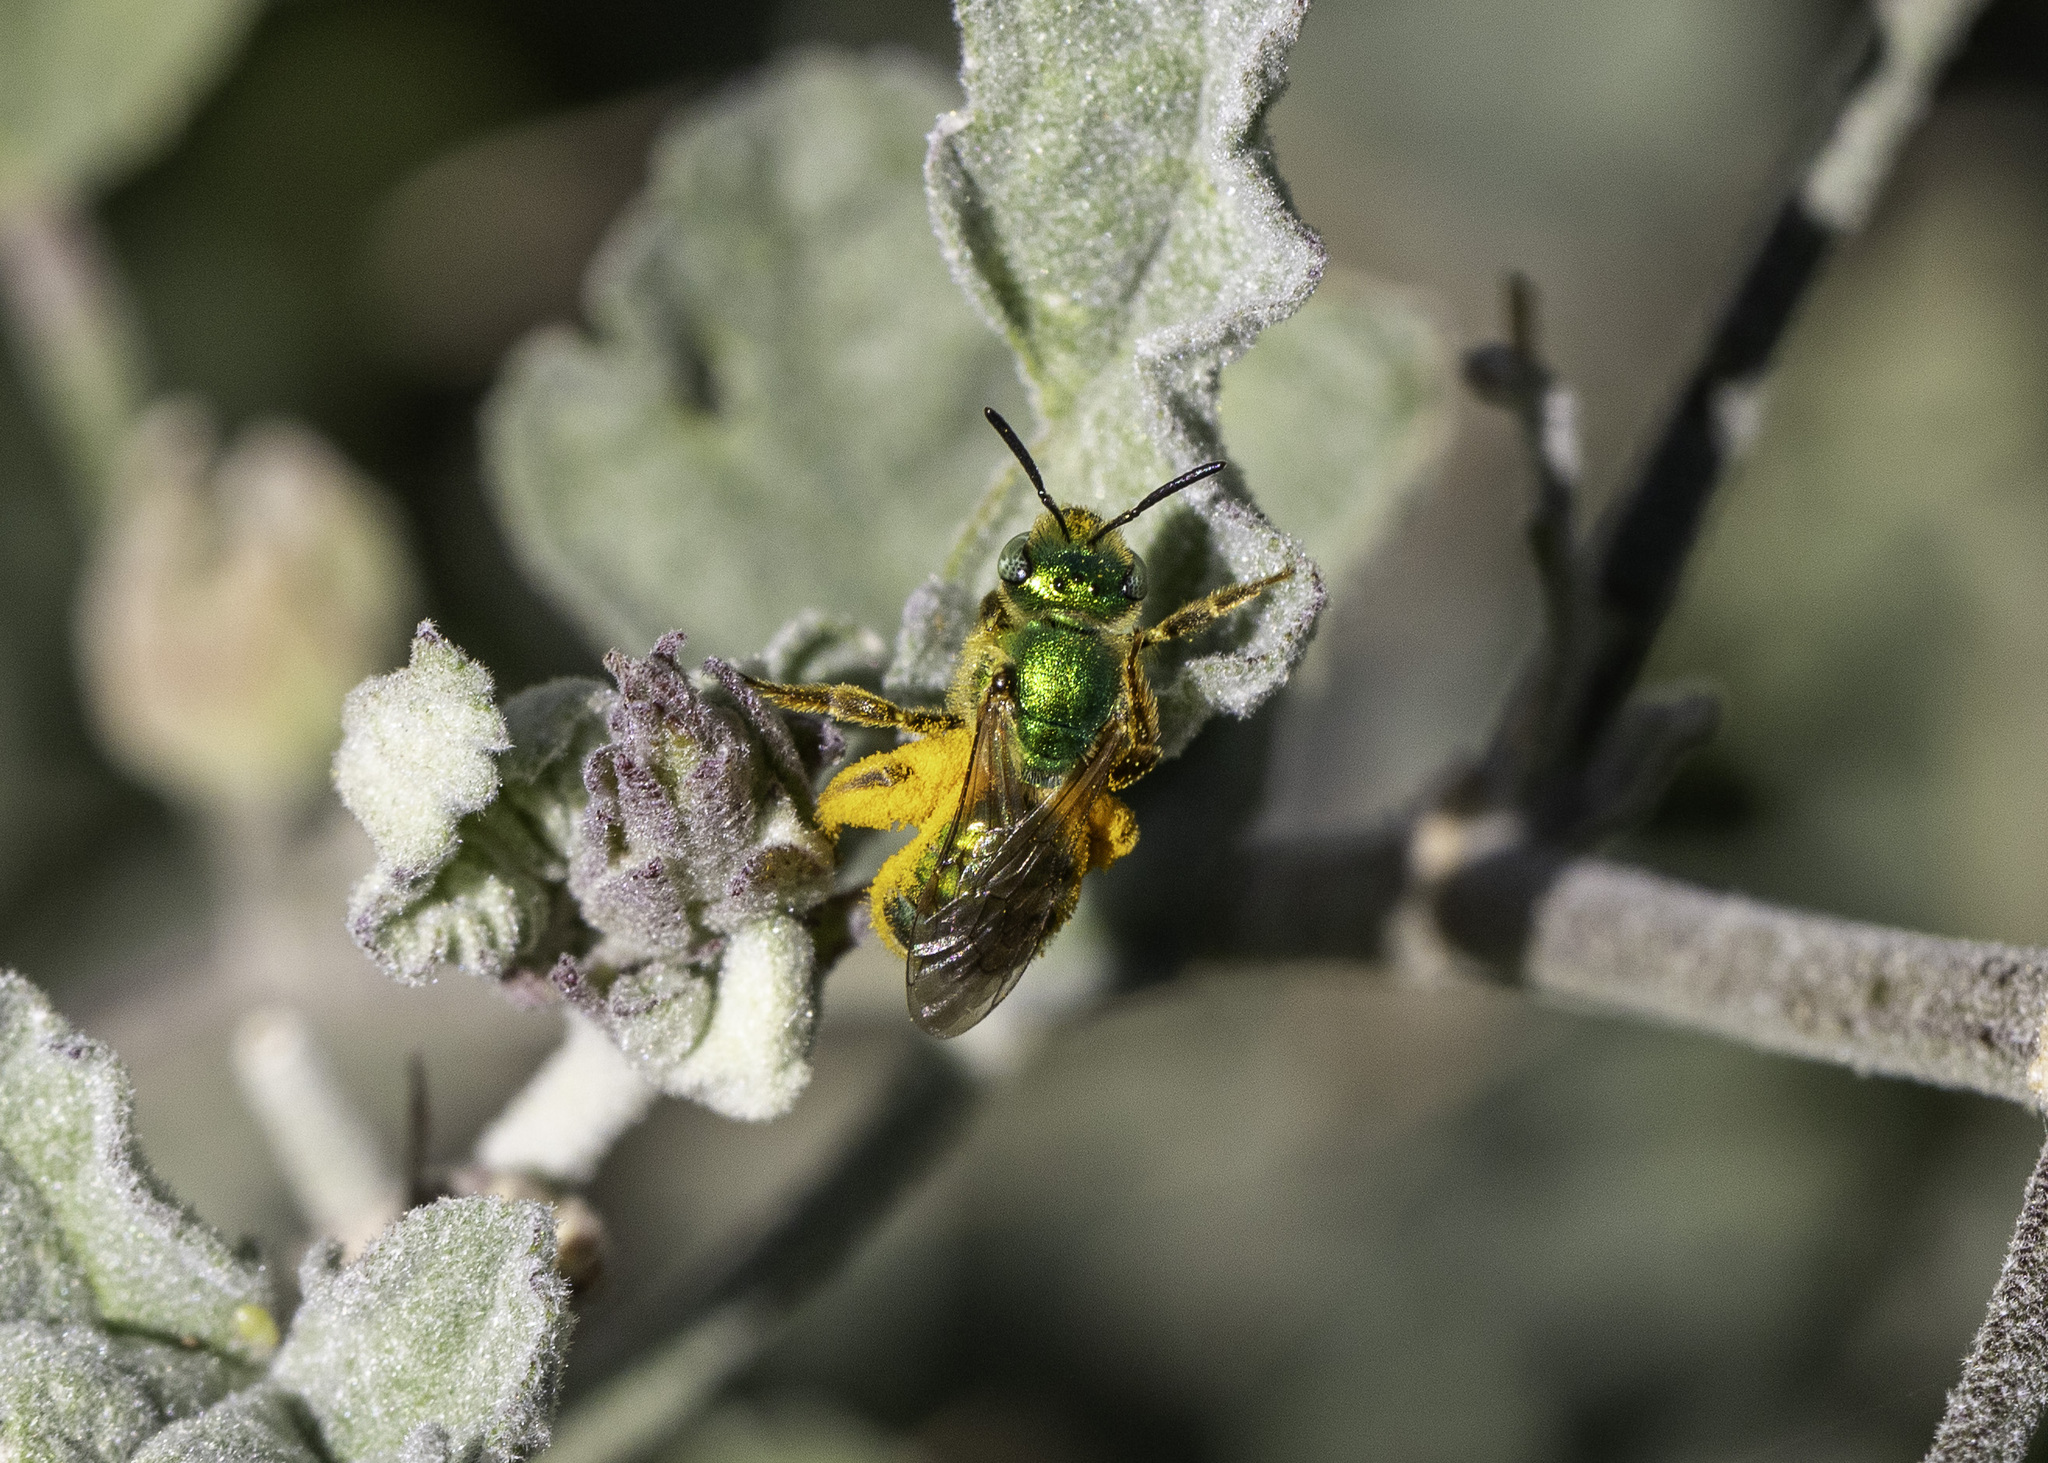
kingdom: Animalia
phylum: Arthropoda
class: Insecta
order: Hymenoptera
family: Halictidae
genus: Agapostemon
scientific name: Agapostemon texanus
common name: Texas striped sweat bee
